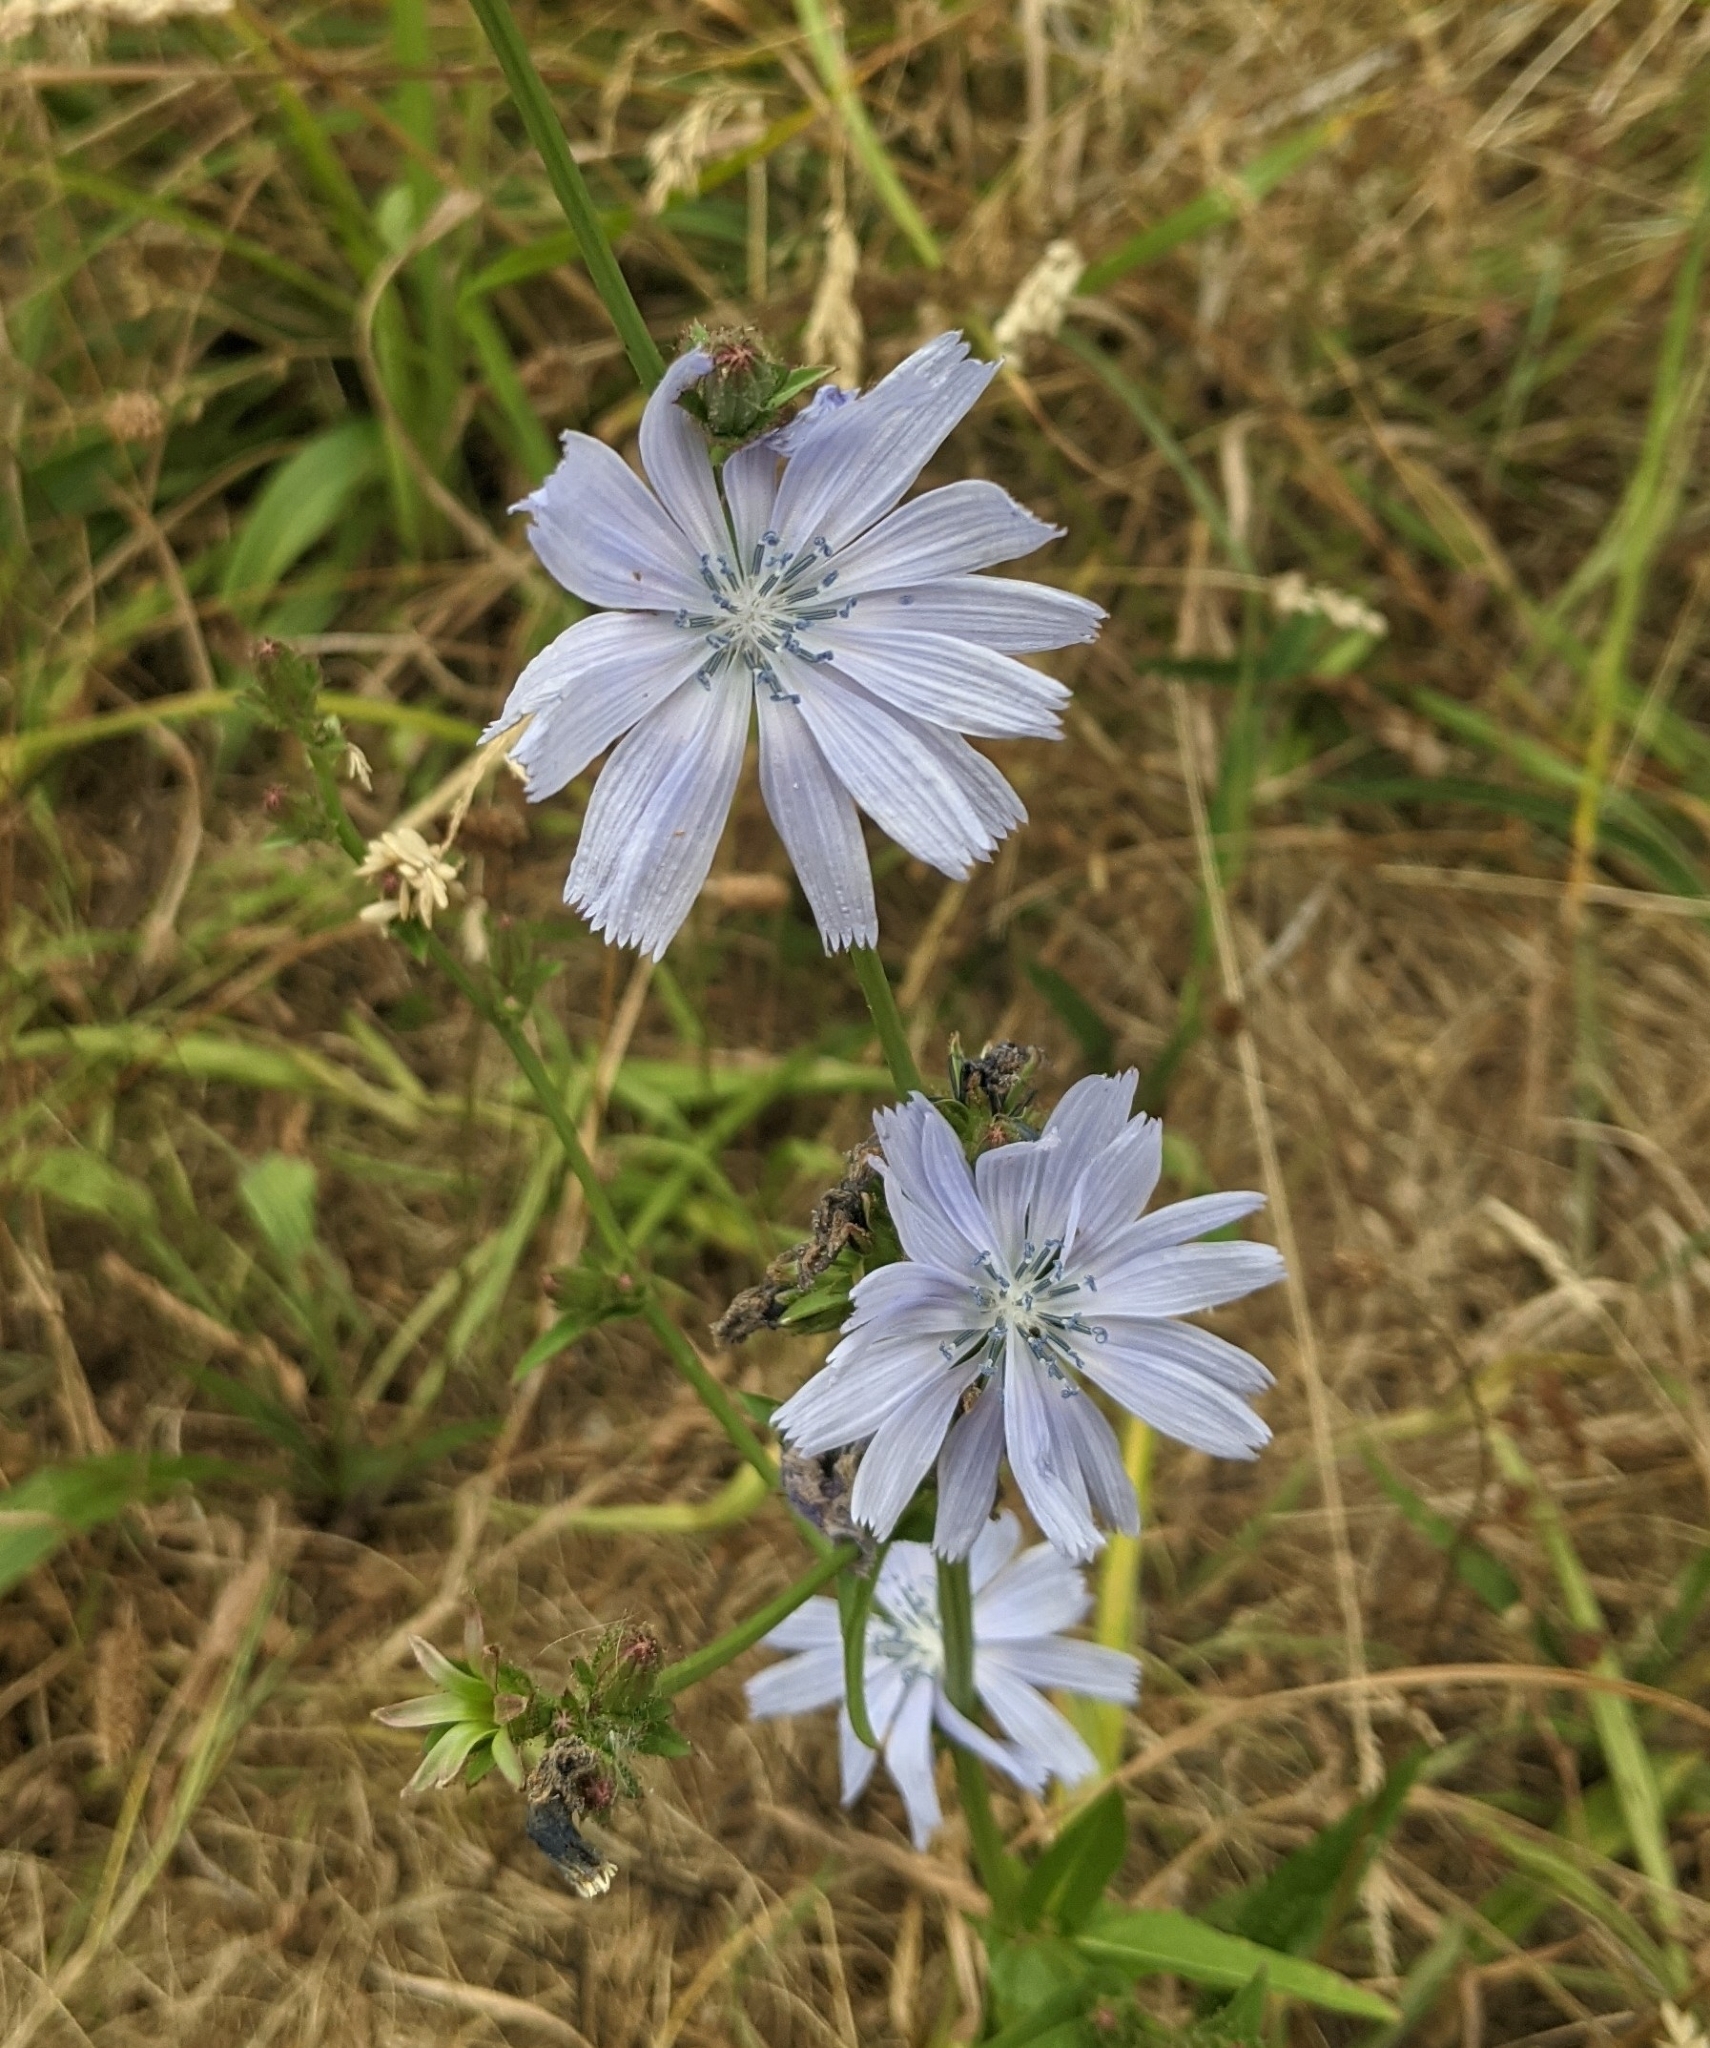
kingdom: Plantae
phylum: Tracheophyta
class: Magnoliopsida
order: Asterales
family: Asteraceae
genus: Cichorium
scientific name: Cichorium intybus
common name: Chicory
